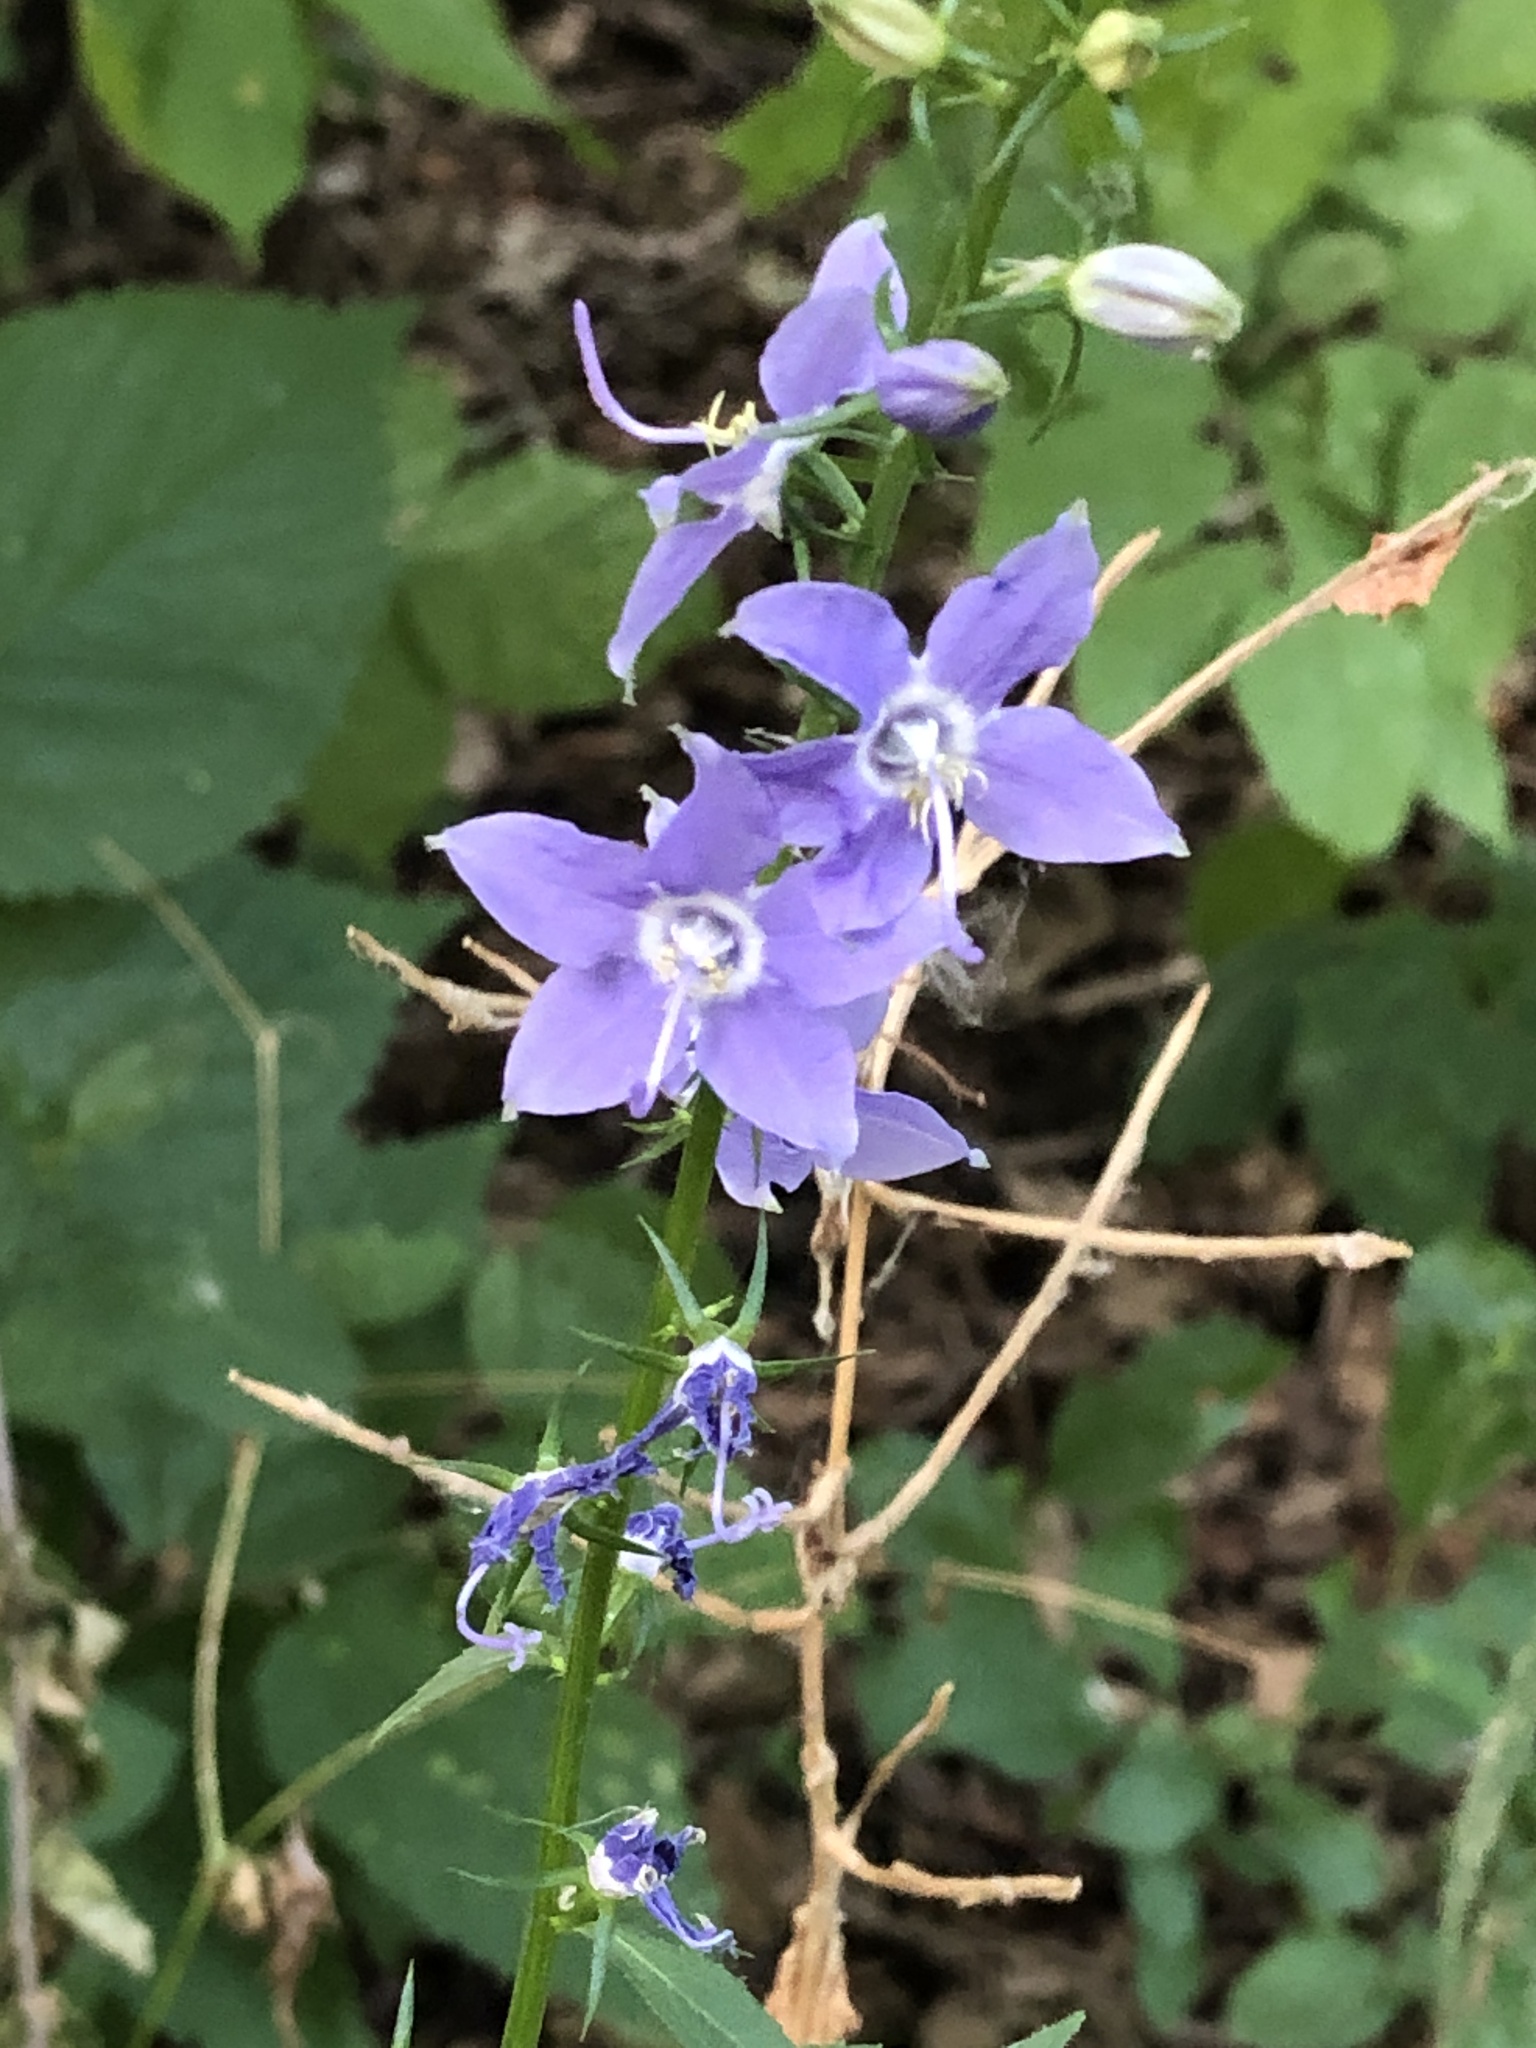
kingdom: Plantae
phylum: Tracheophyta
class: Magnoliopsida
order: Asterales
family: Campanulaceae
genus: Campanulastrum
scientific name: Campanulastrum americanum
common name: American bellflower
